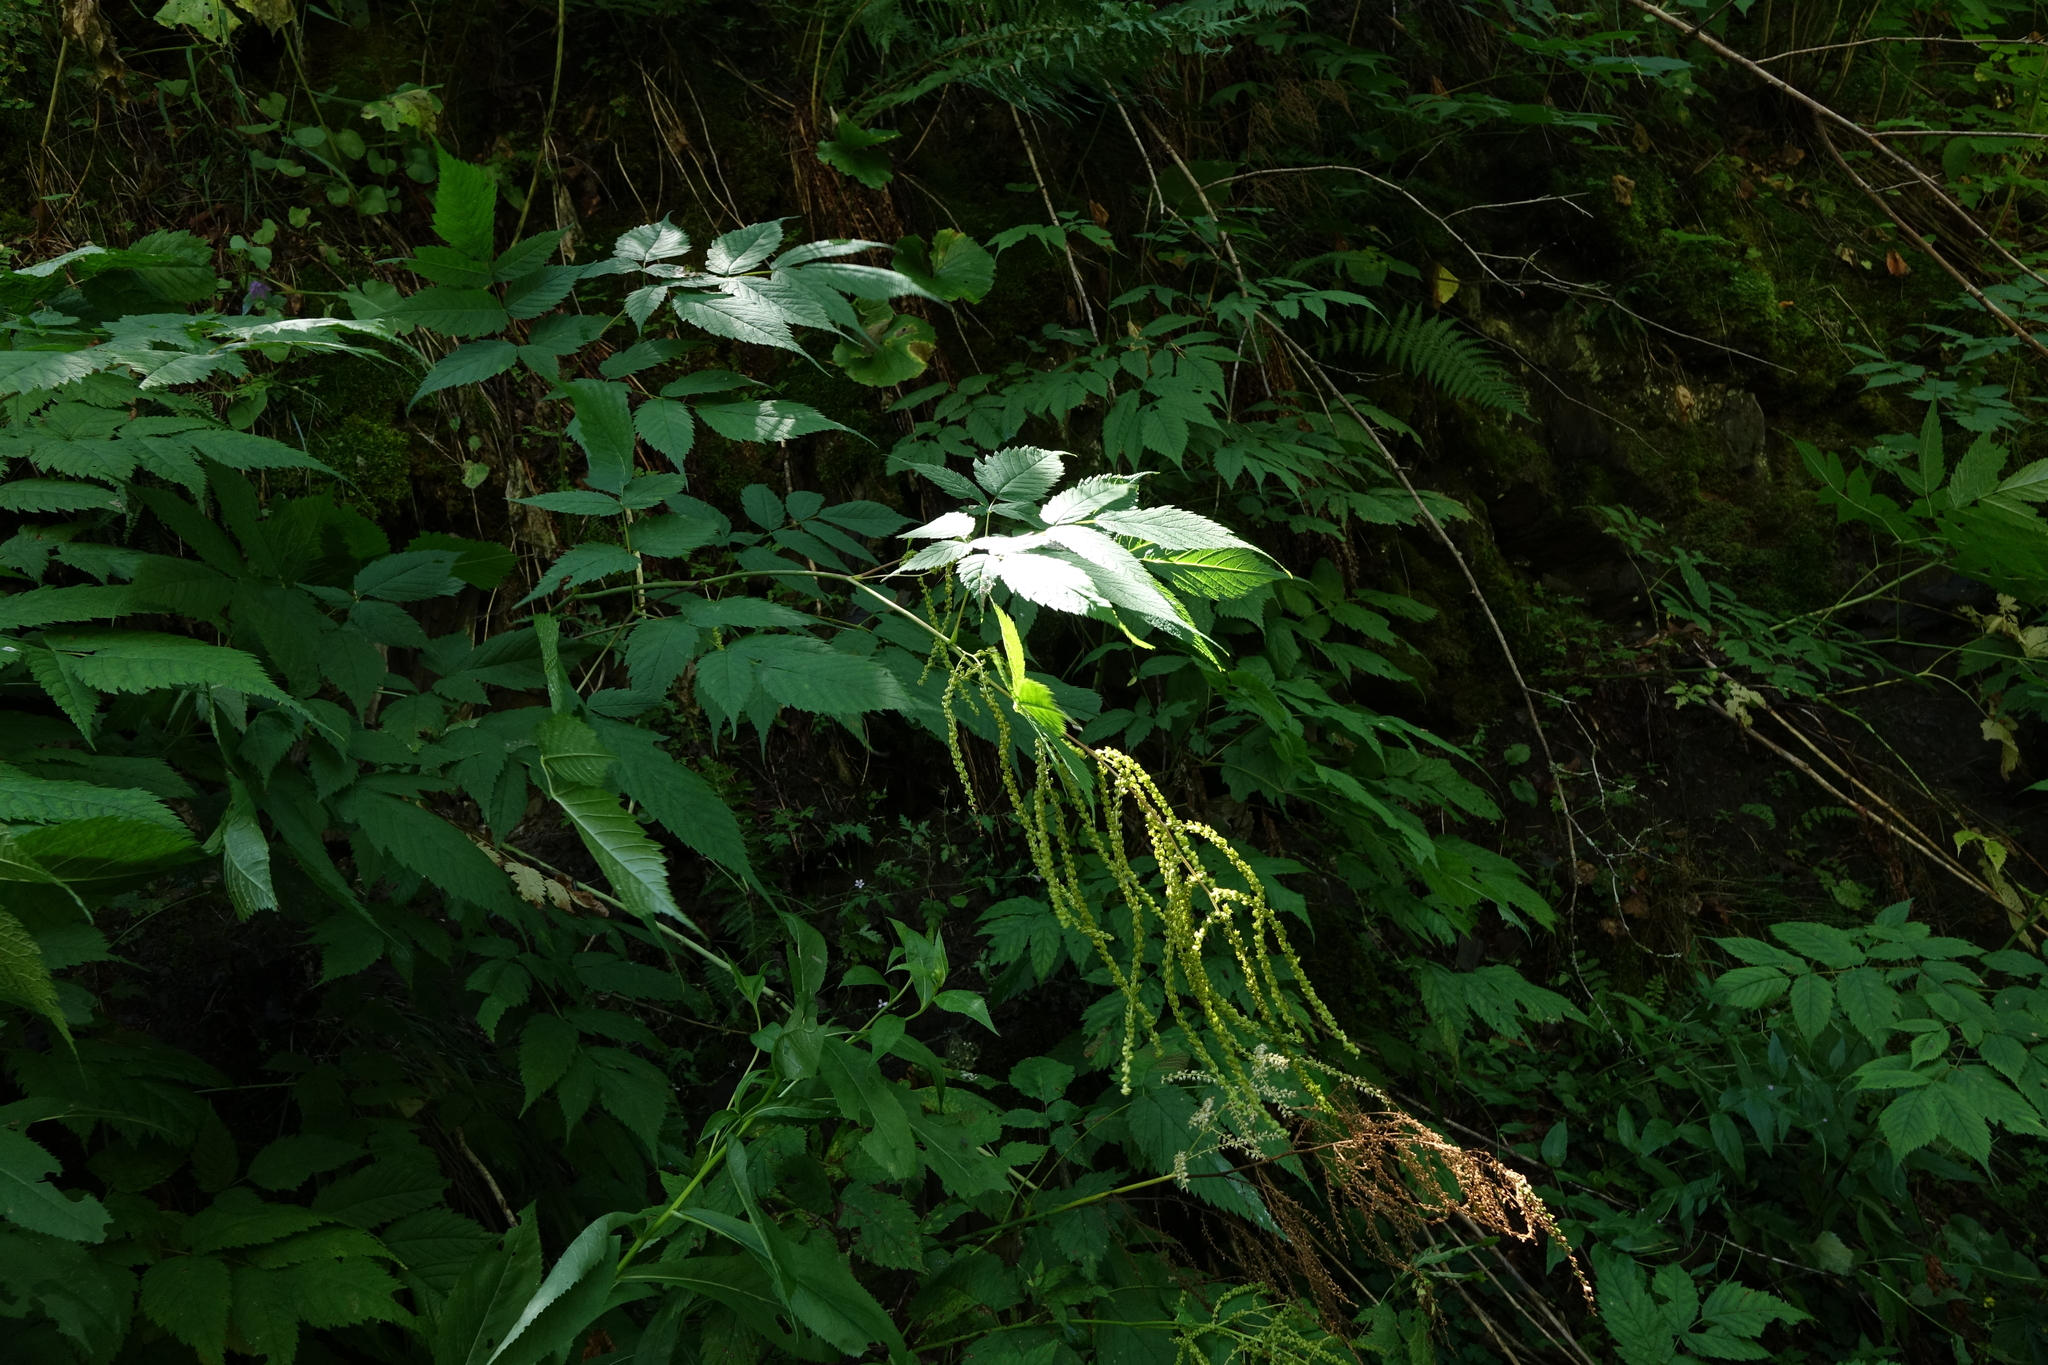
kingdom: Plantae
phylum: Tracheophyta
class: Magnoliopsida
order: Rosales
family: Rosaceae
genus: Aruncus
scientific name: Aruncus sylvester
